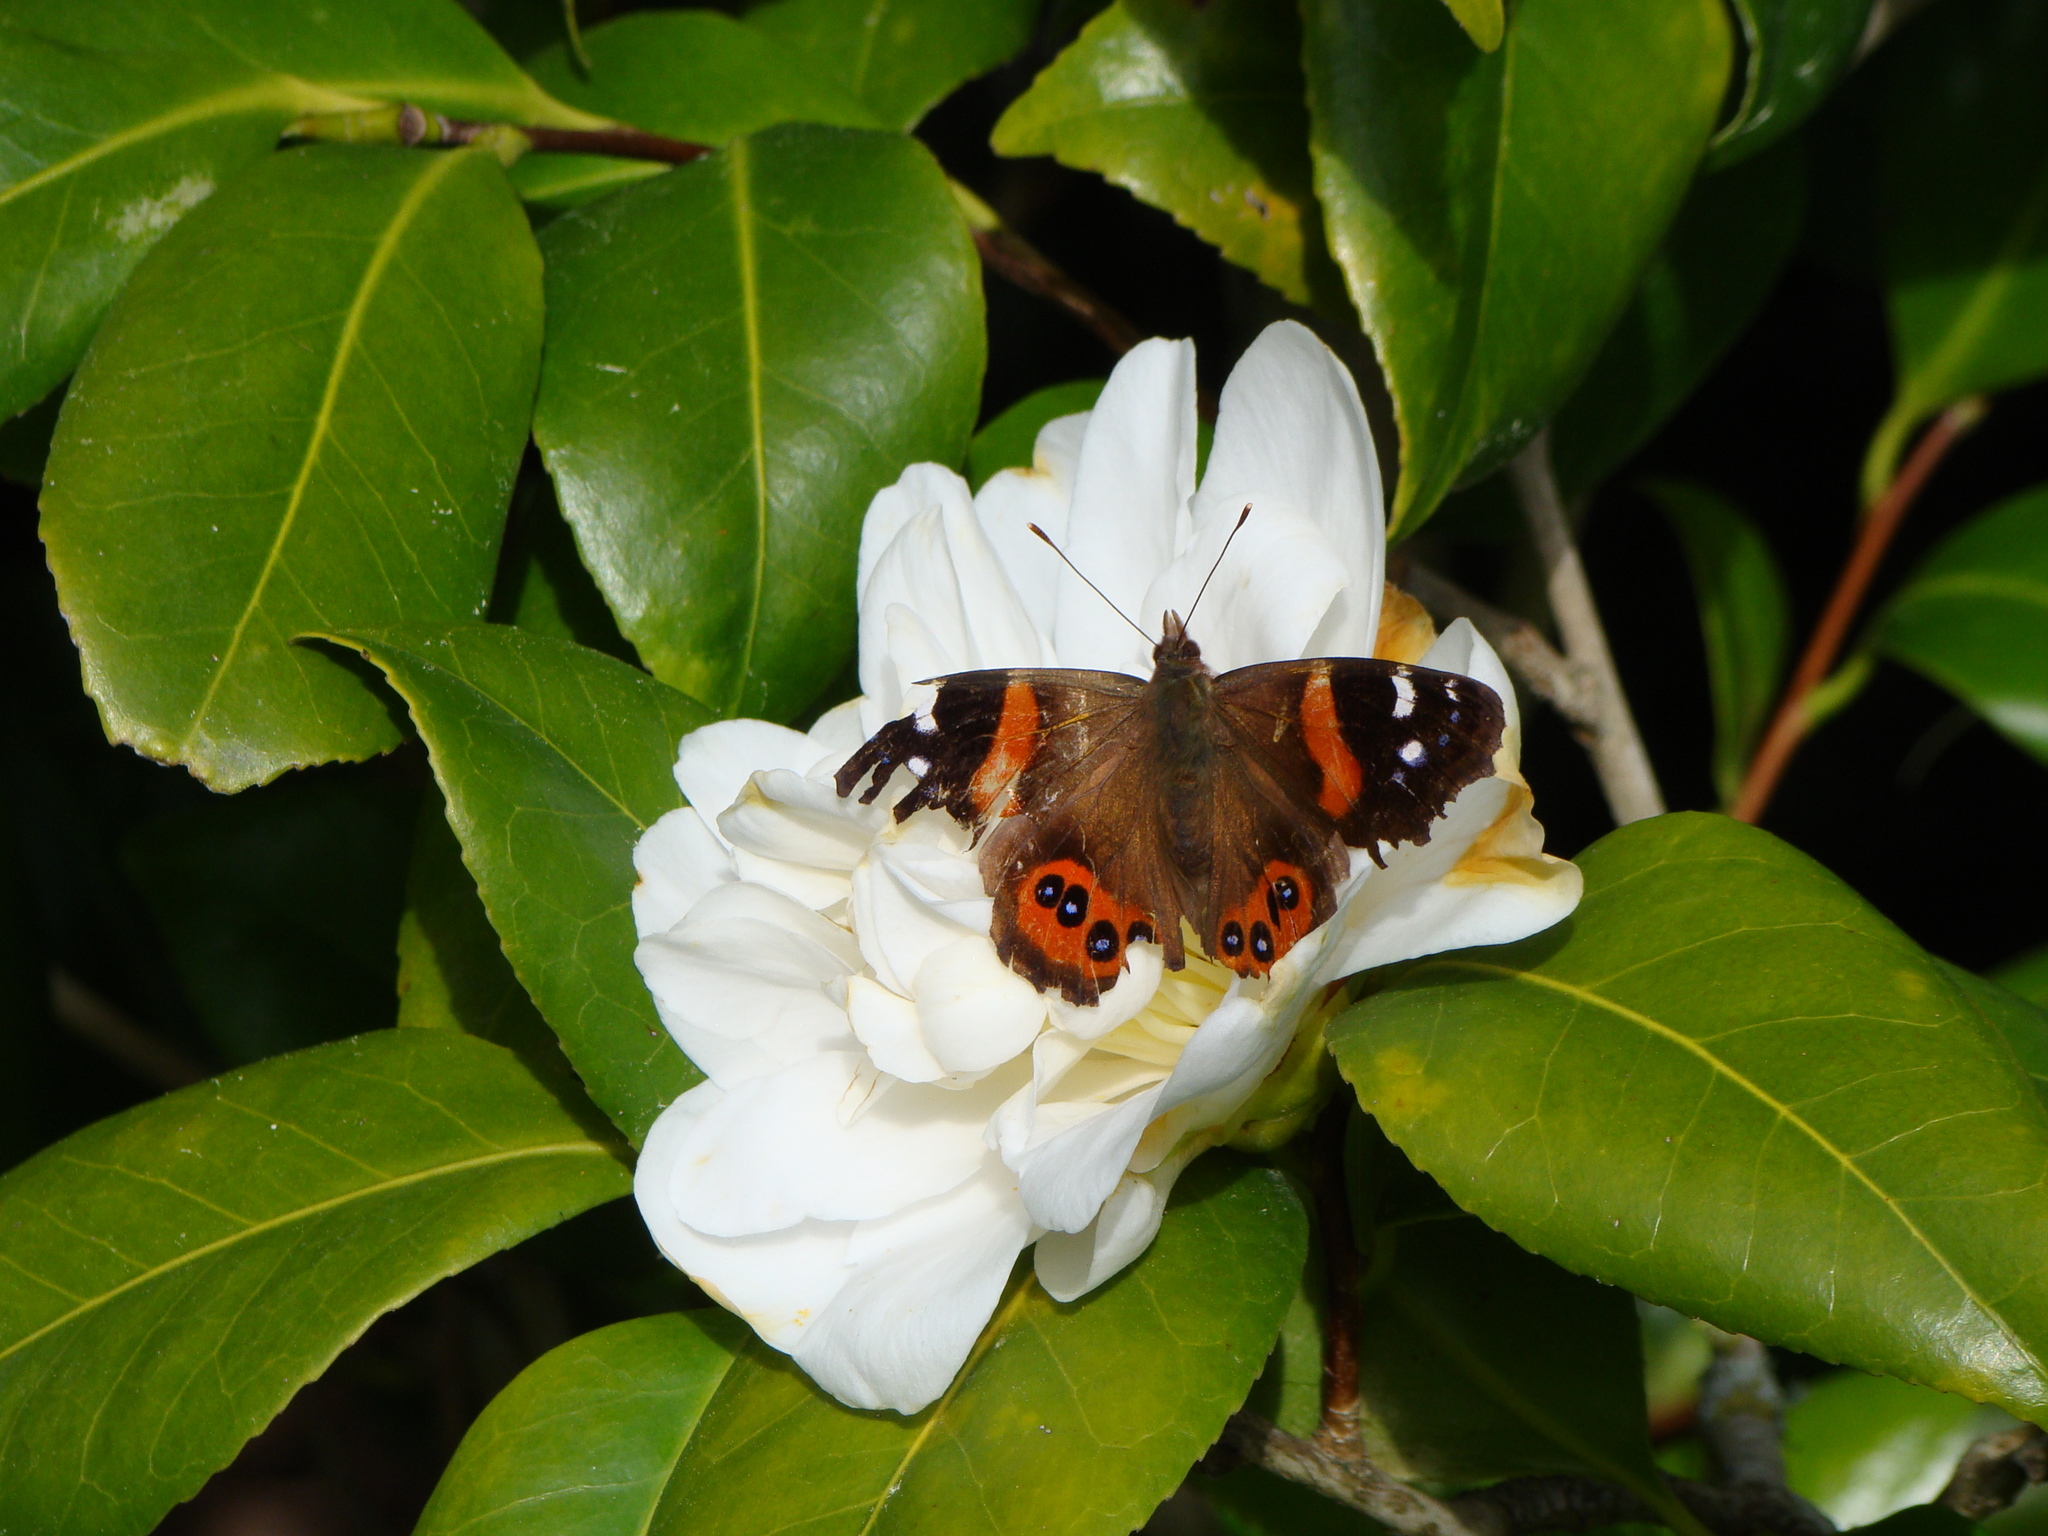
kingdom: Animalia
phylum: Arthropoda
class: Insecta
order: Lepidoptera
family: Nymphalidae
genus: Vanessa
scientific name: Vanessa gonerilla
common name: New zealand red admiral
